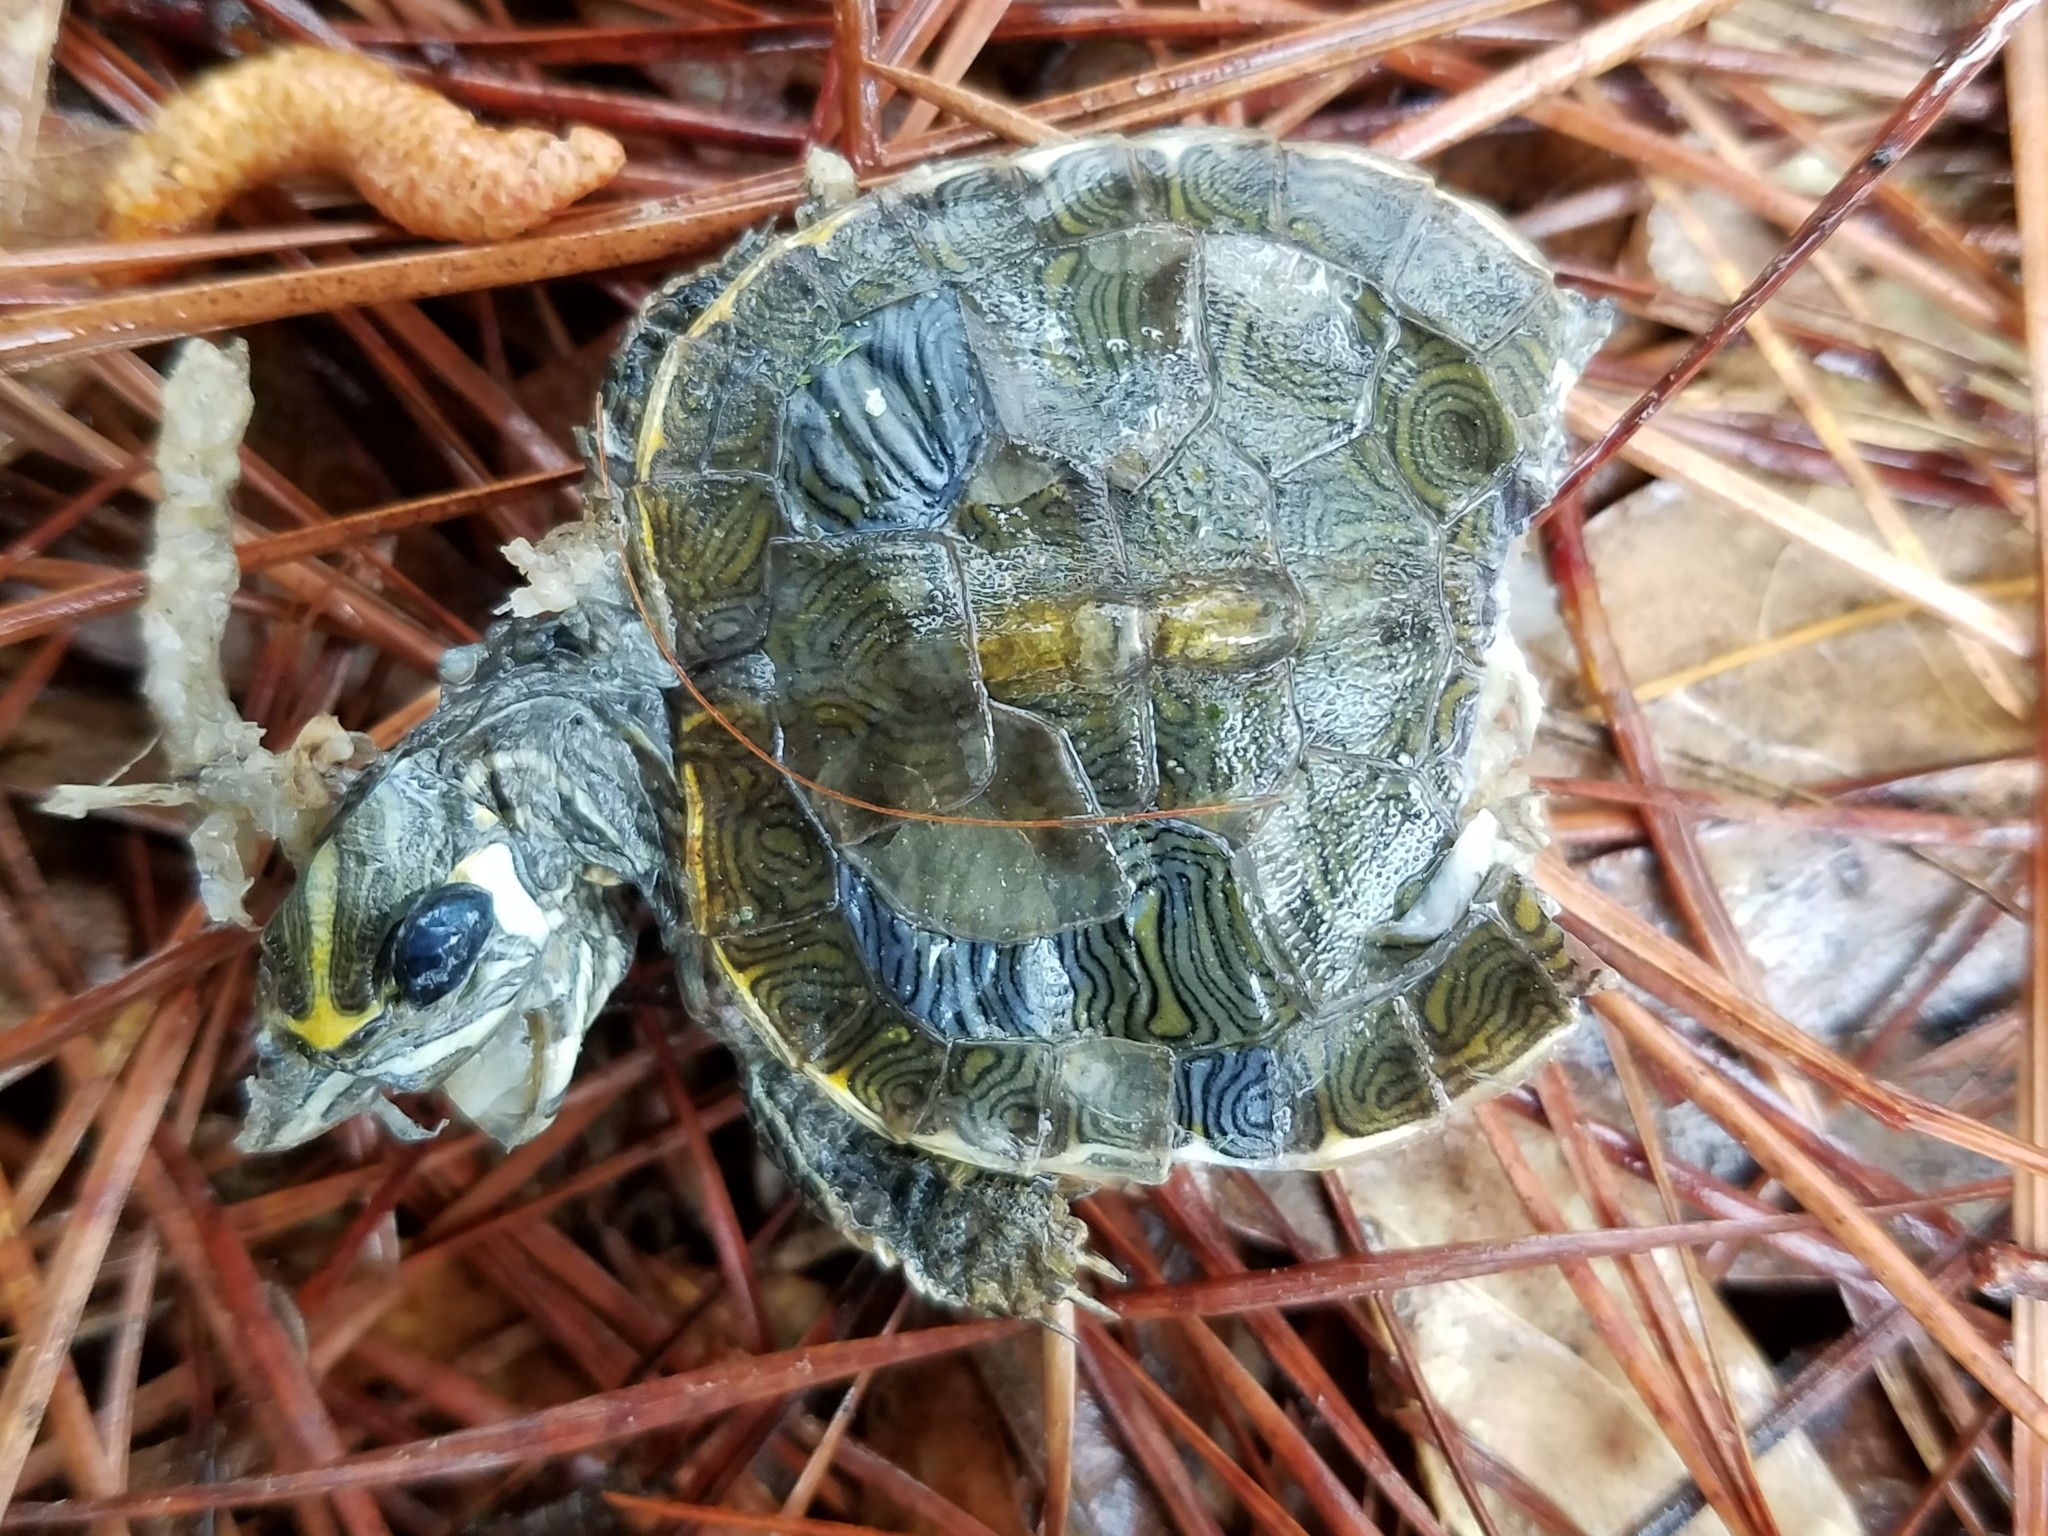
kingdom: Animalia
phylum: Chordata
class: Testudines
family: Emydidae
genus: Trachemys
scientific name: Trachemys scripta
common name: Slider
